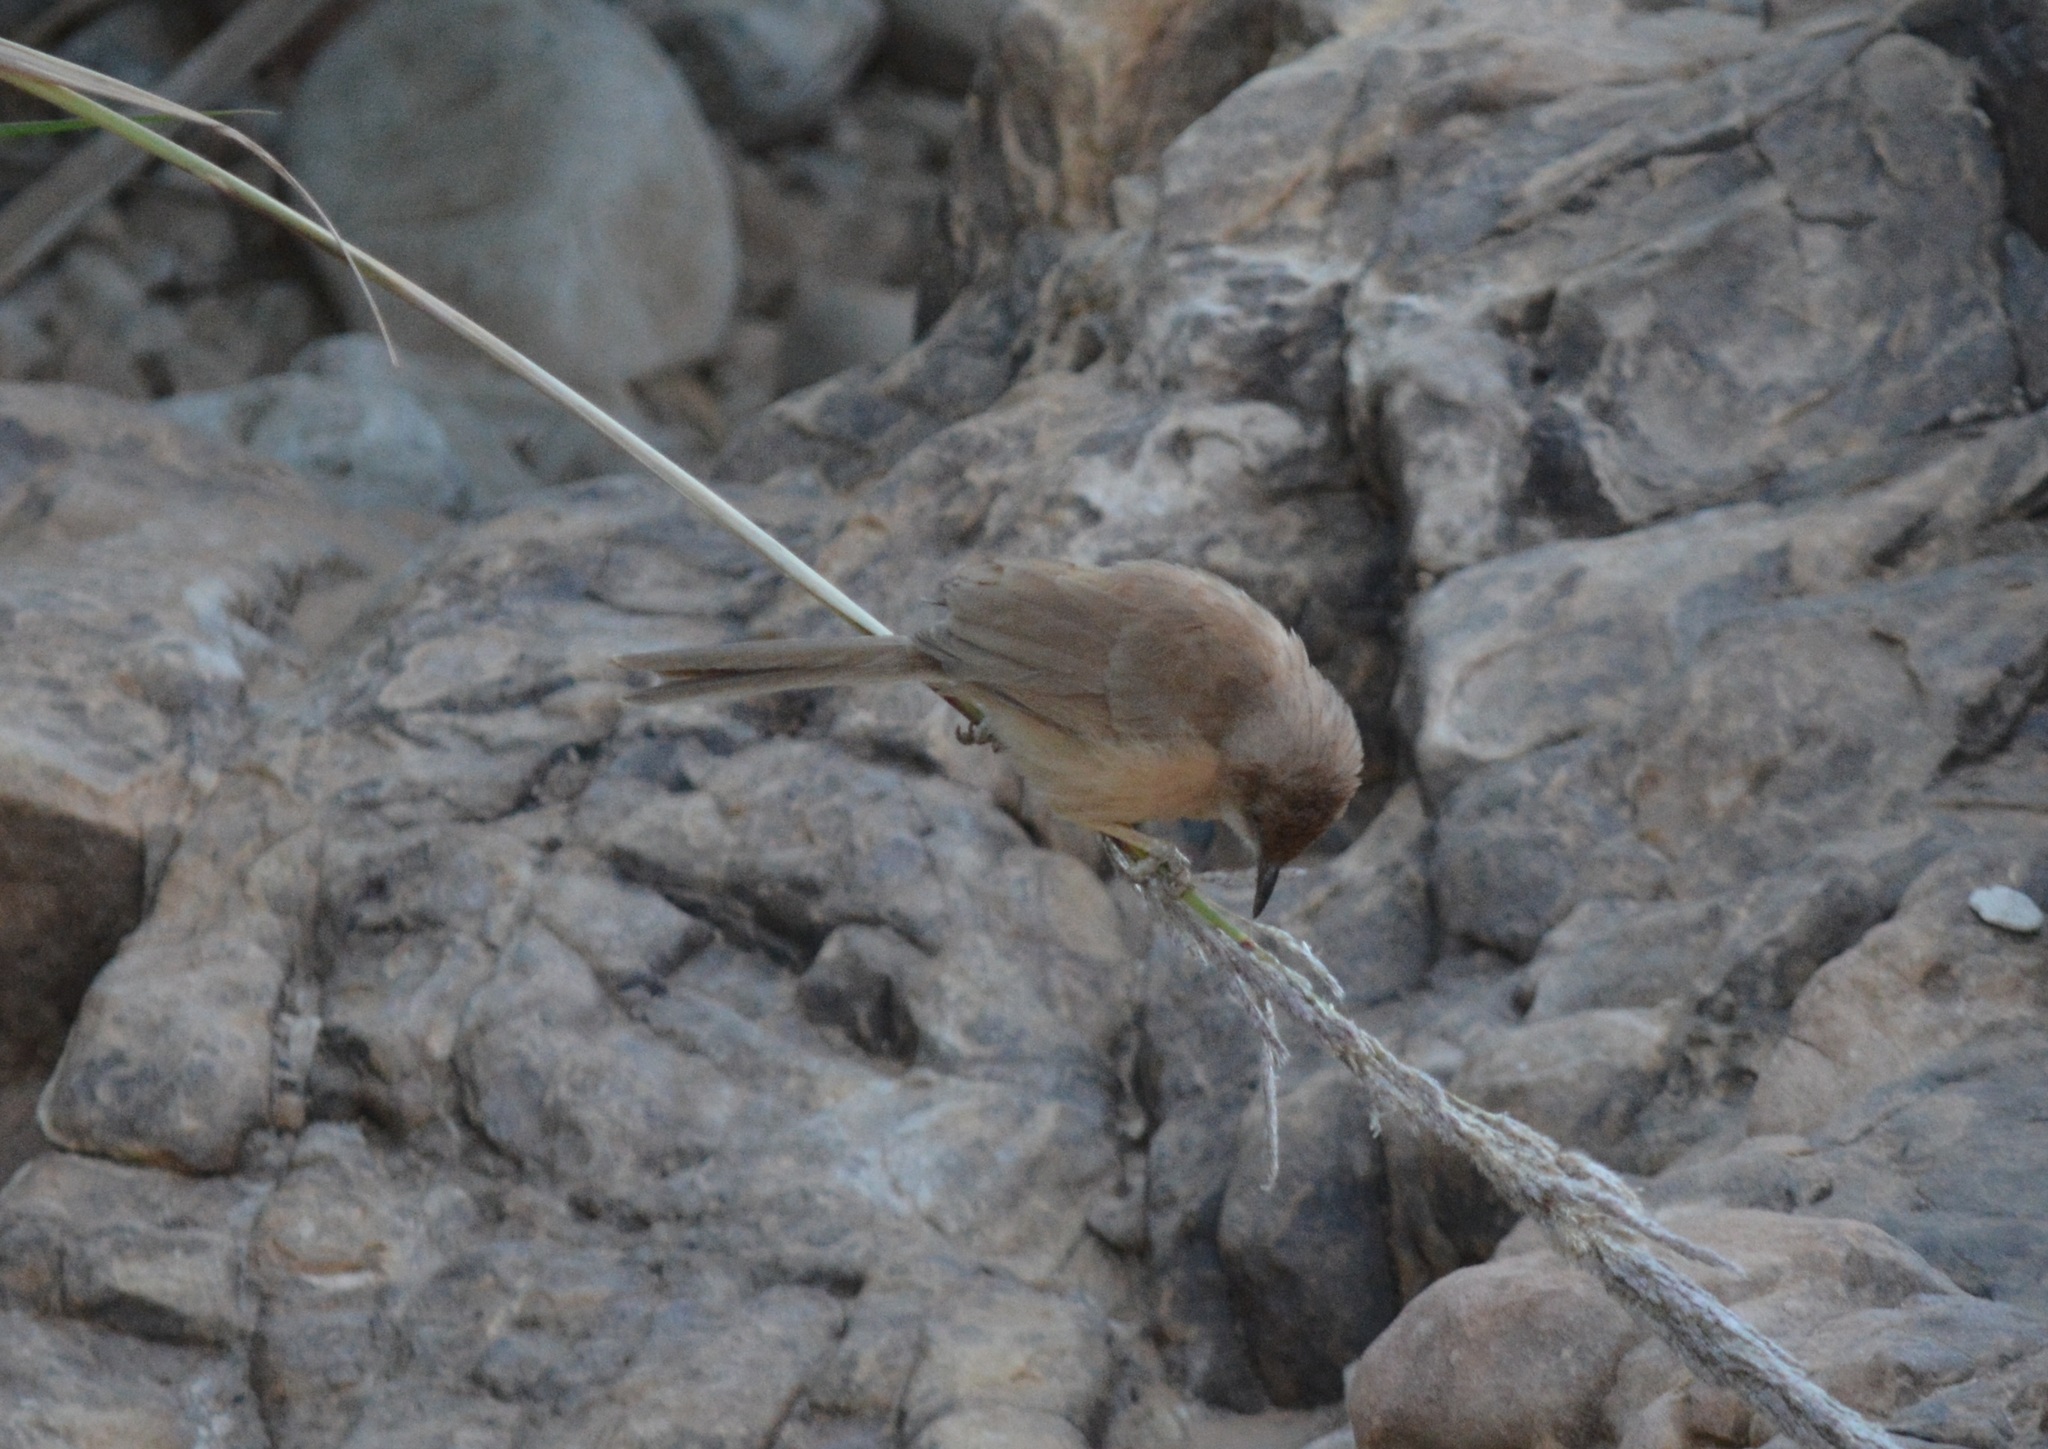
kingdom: Animalia
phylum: Chordata
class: Aves
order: Passeriformes
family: Leiothrichidae
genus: Turdoides
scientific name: Turdoides fulva
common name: Fulvous babbler
